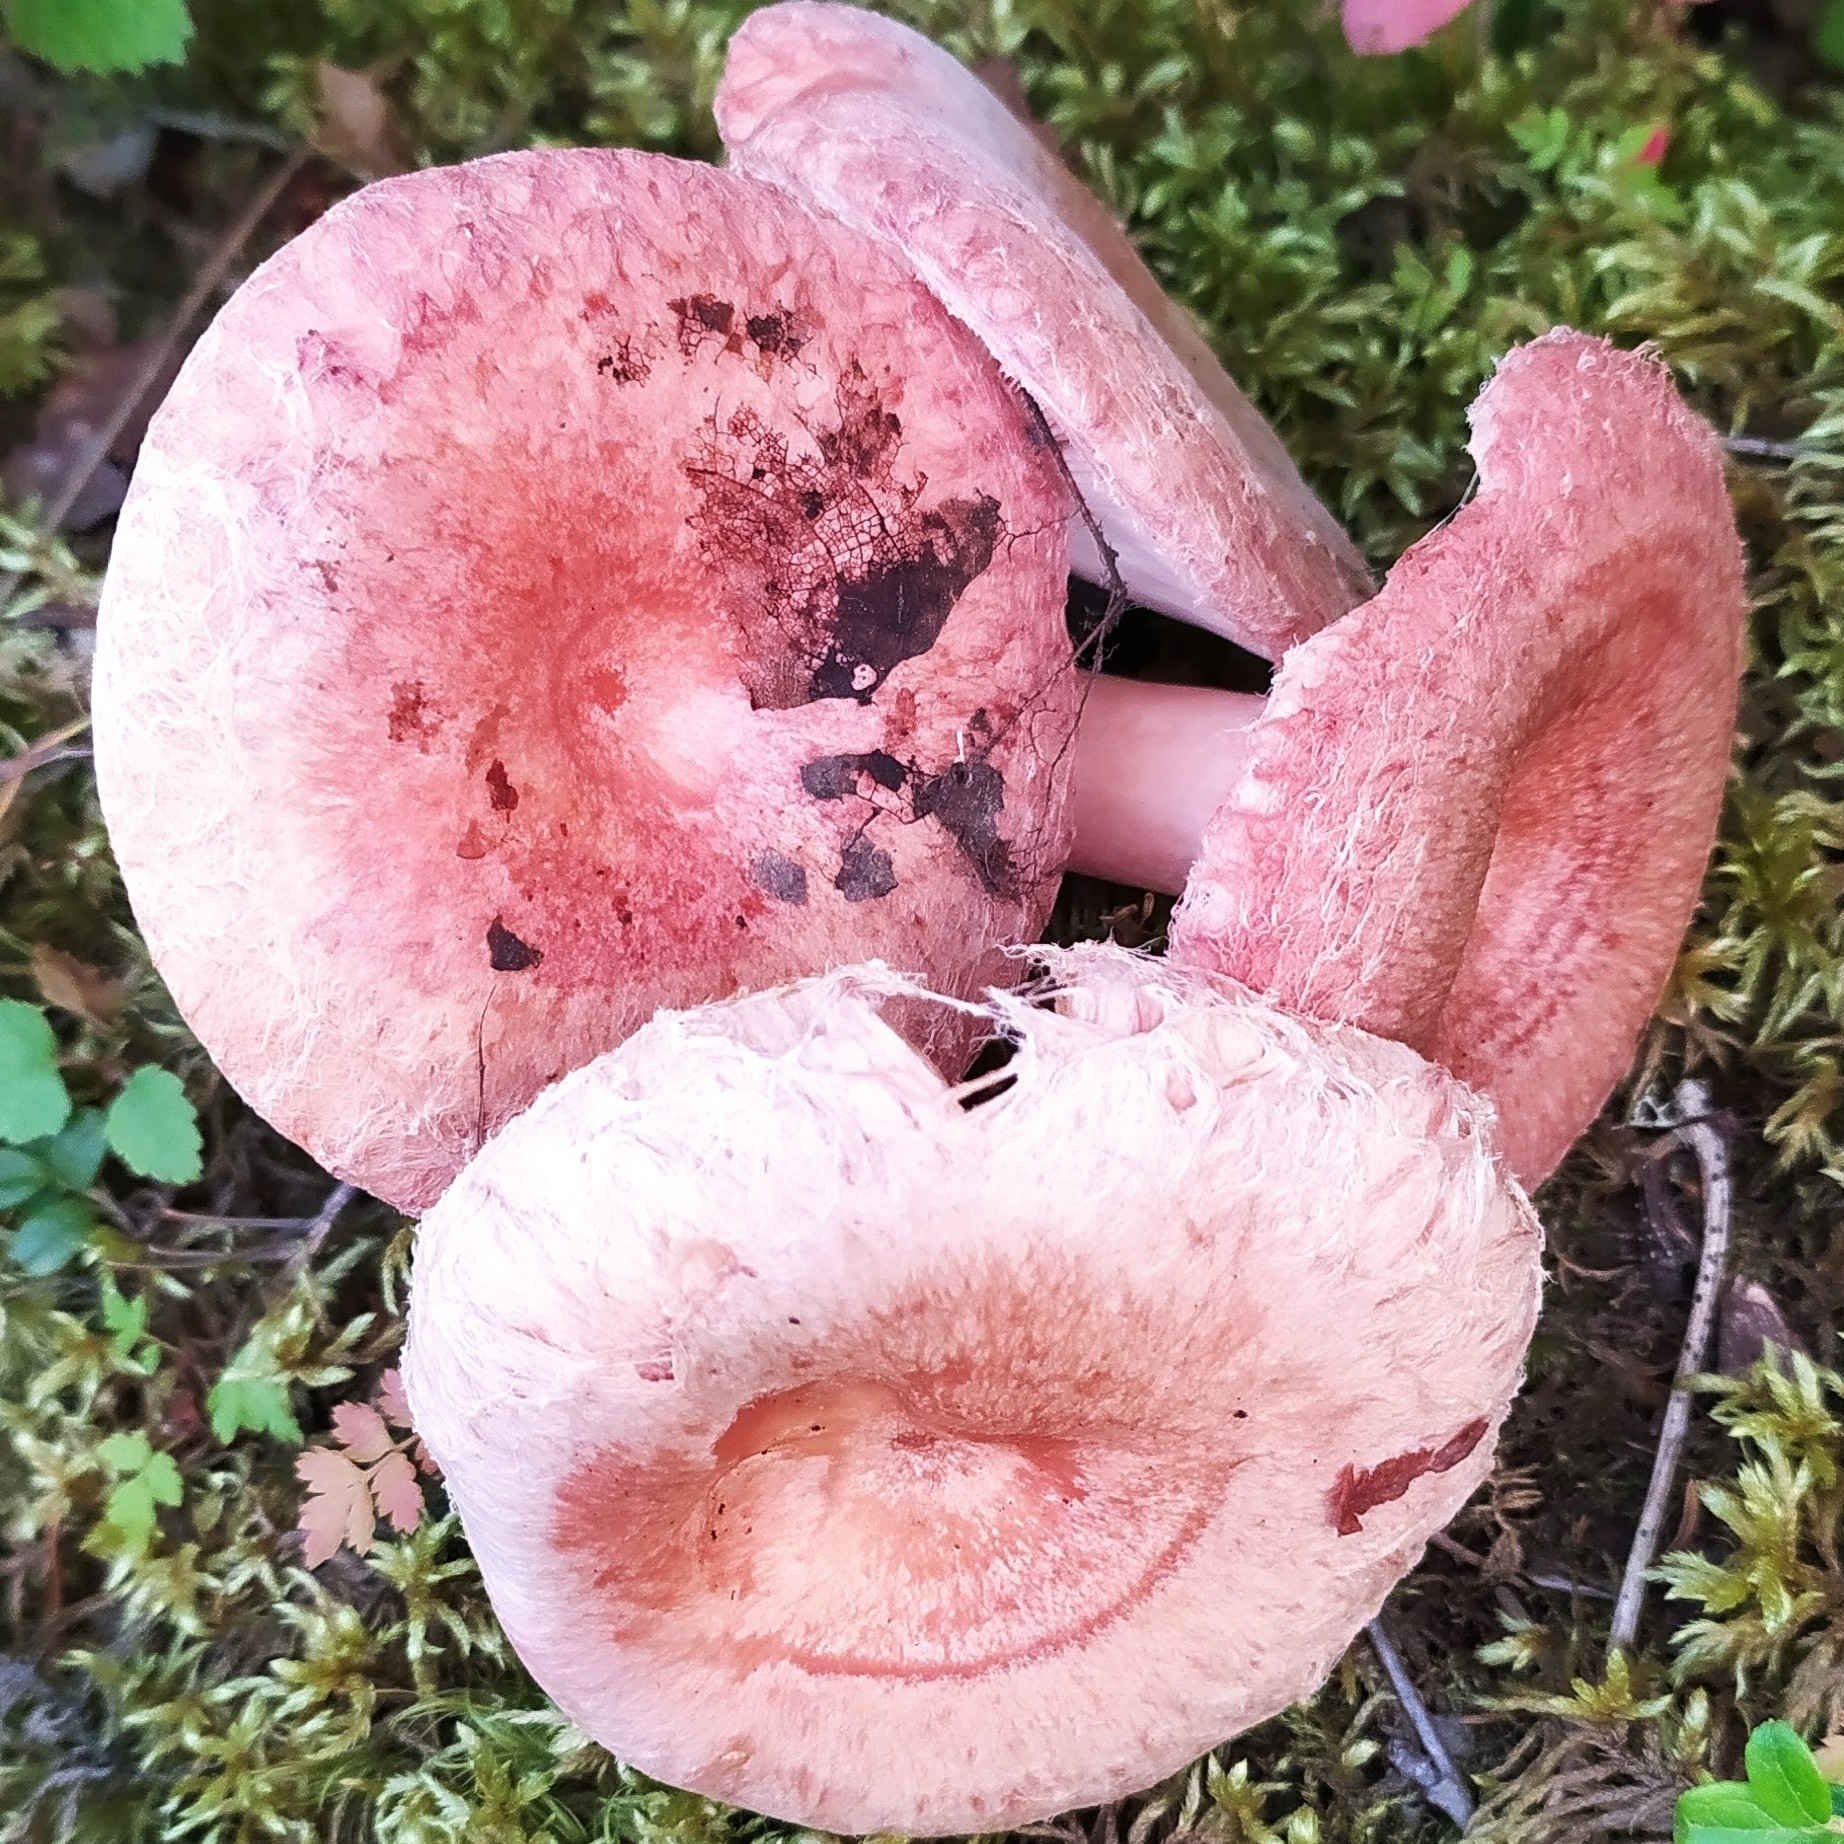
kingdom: Fungi
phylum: Basidiomycota
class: Agaricomycetes
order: Russulales
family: Russulaceae
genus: Lactarius
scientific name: Lactarius torminosus
